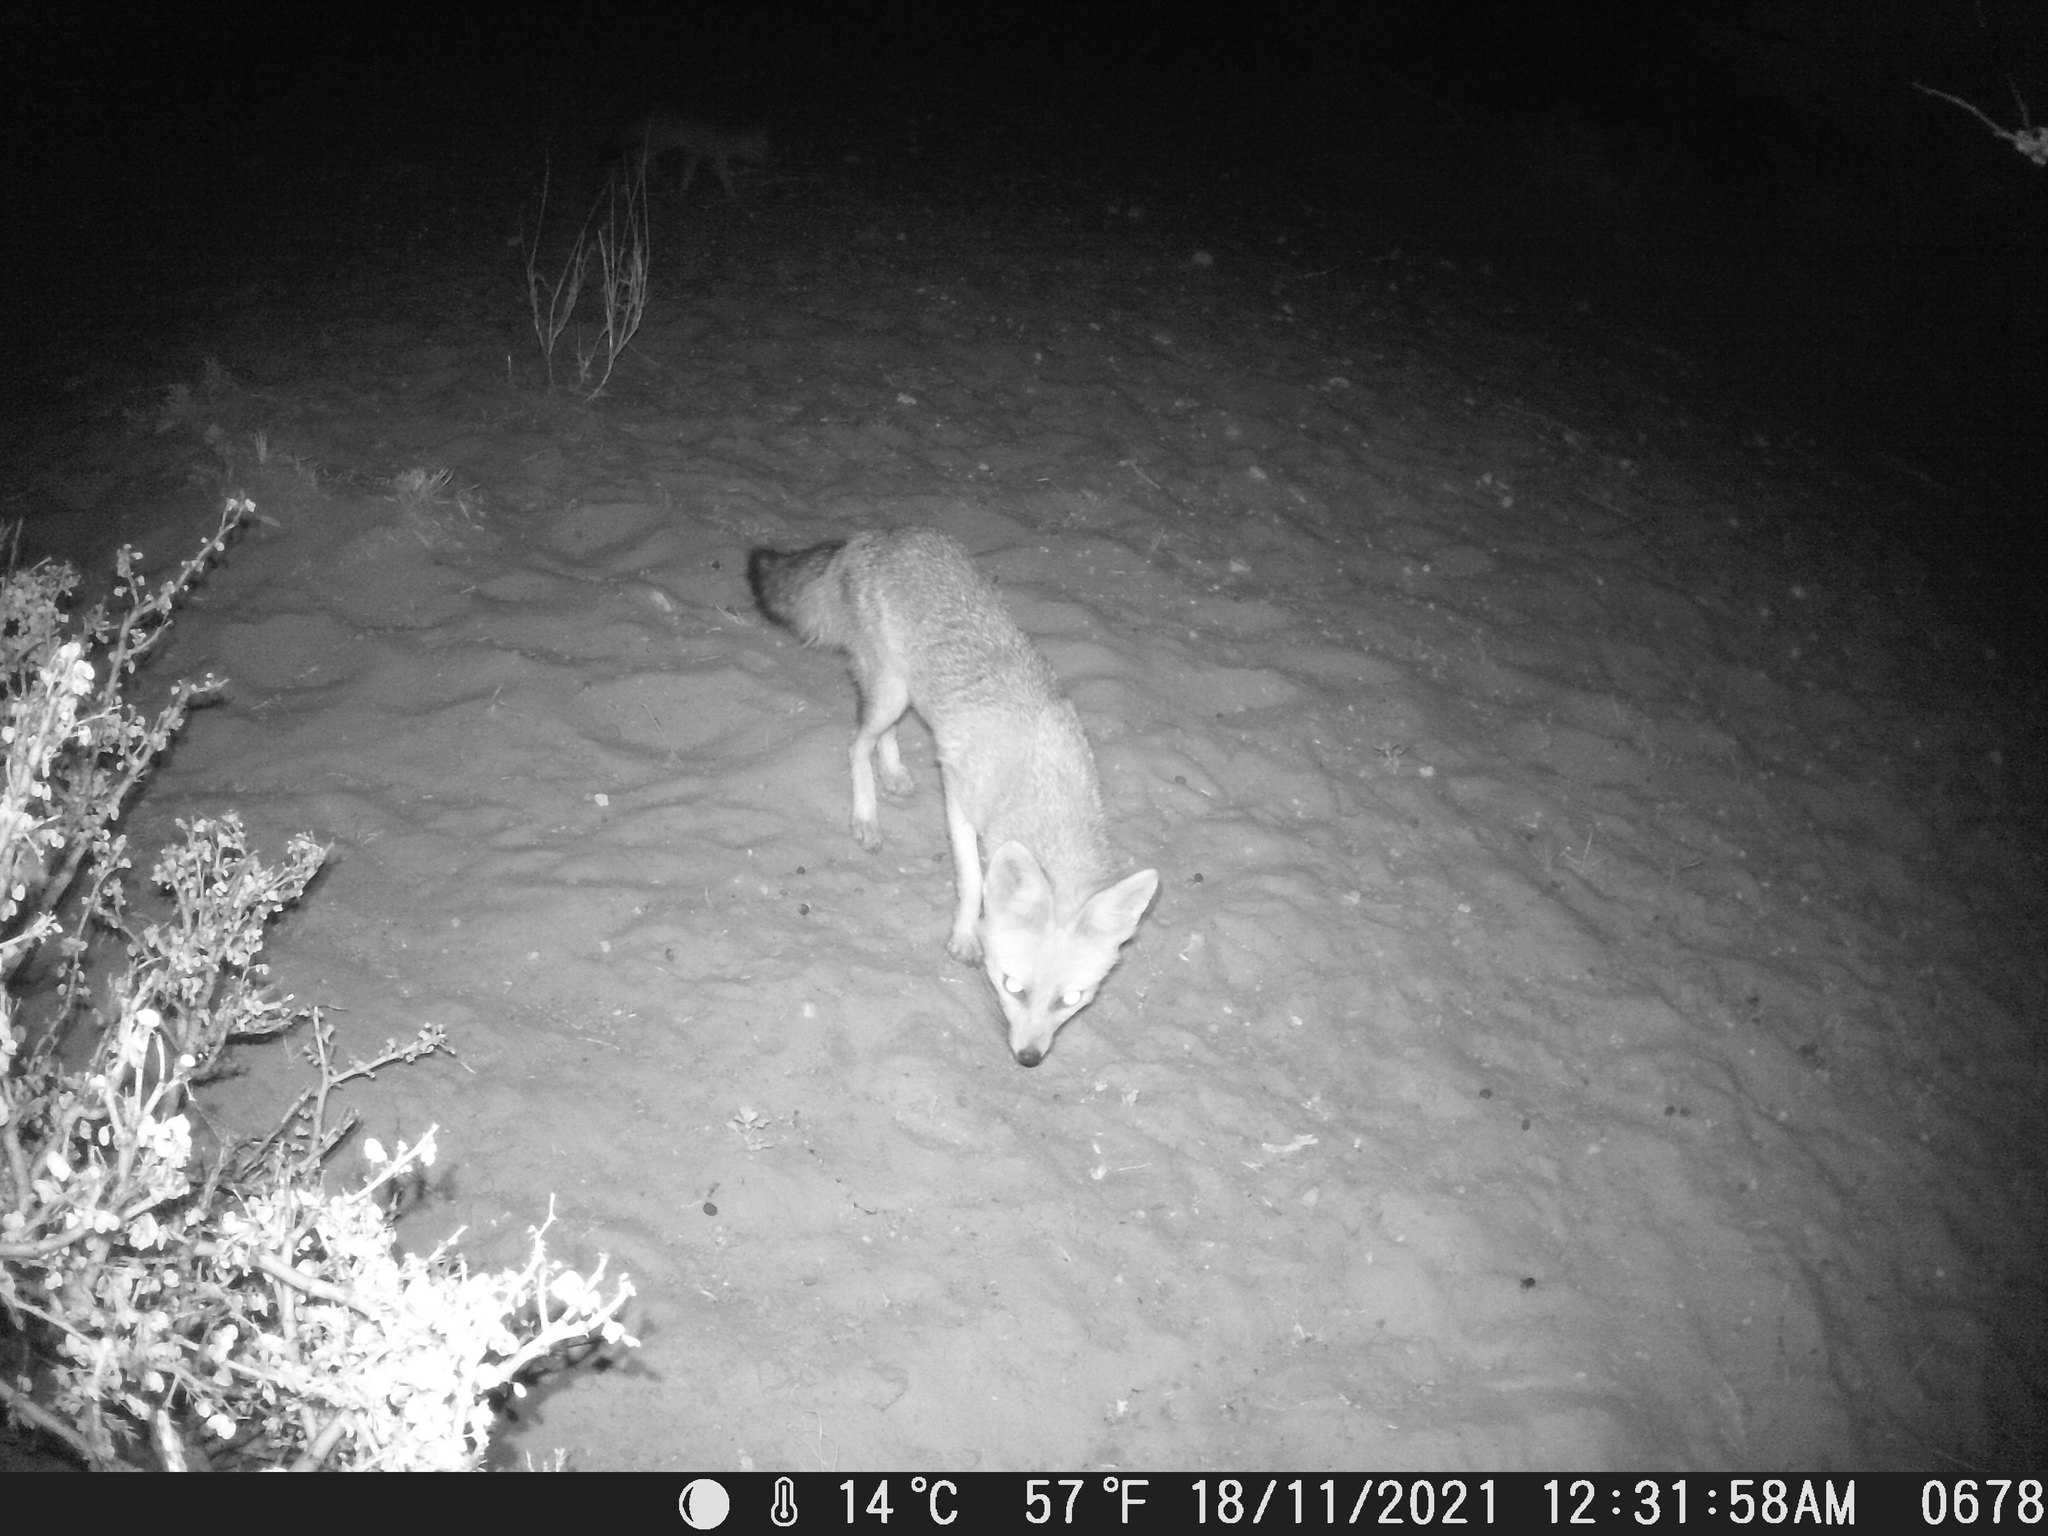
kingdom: Animalia
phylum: Chordata
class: Mammalia
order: Carnivora
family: Canidae
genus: Vulpes
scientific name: Vulpes chama
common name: Cape fox
